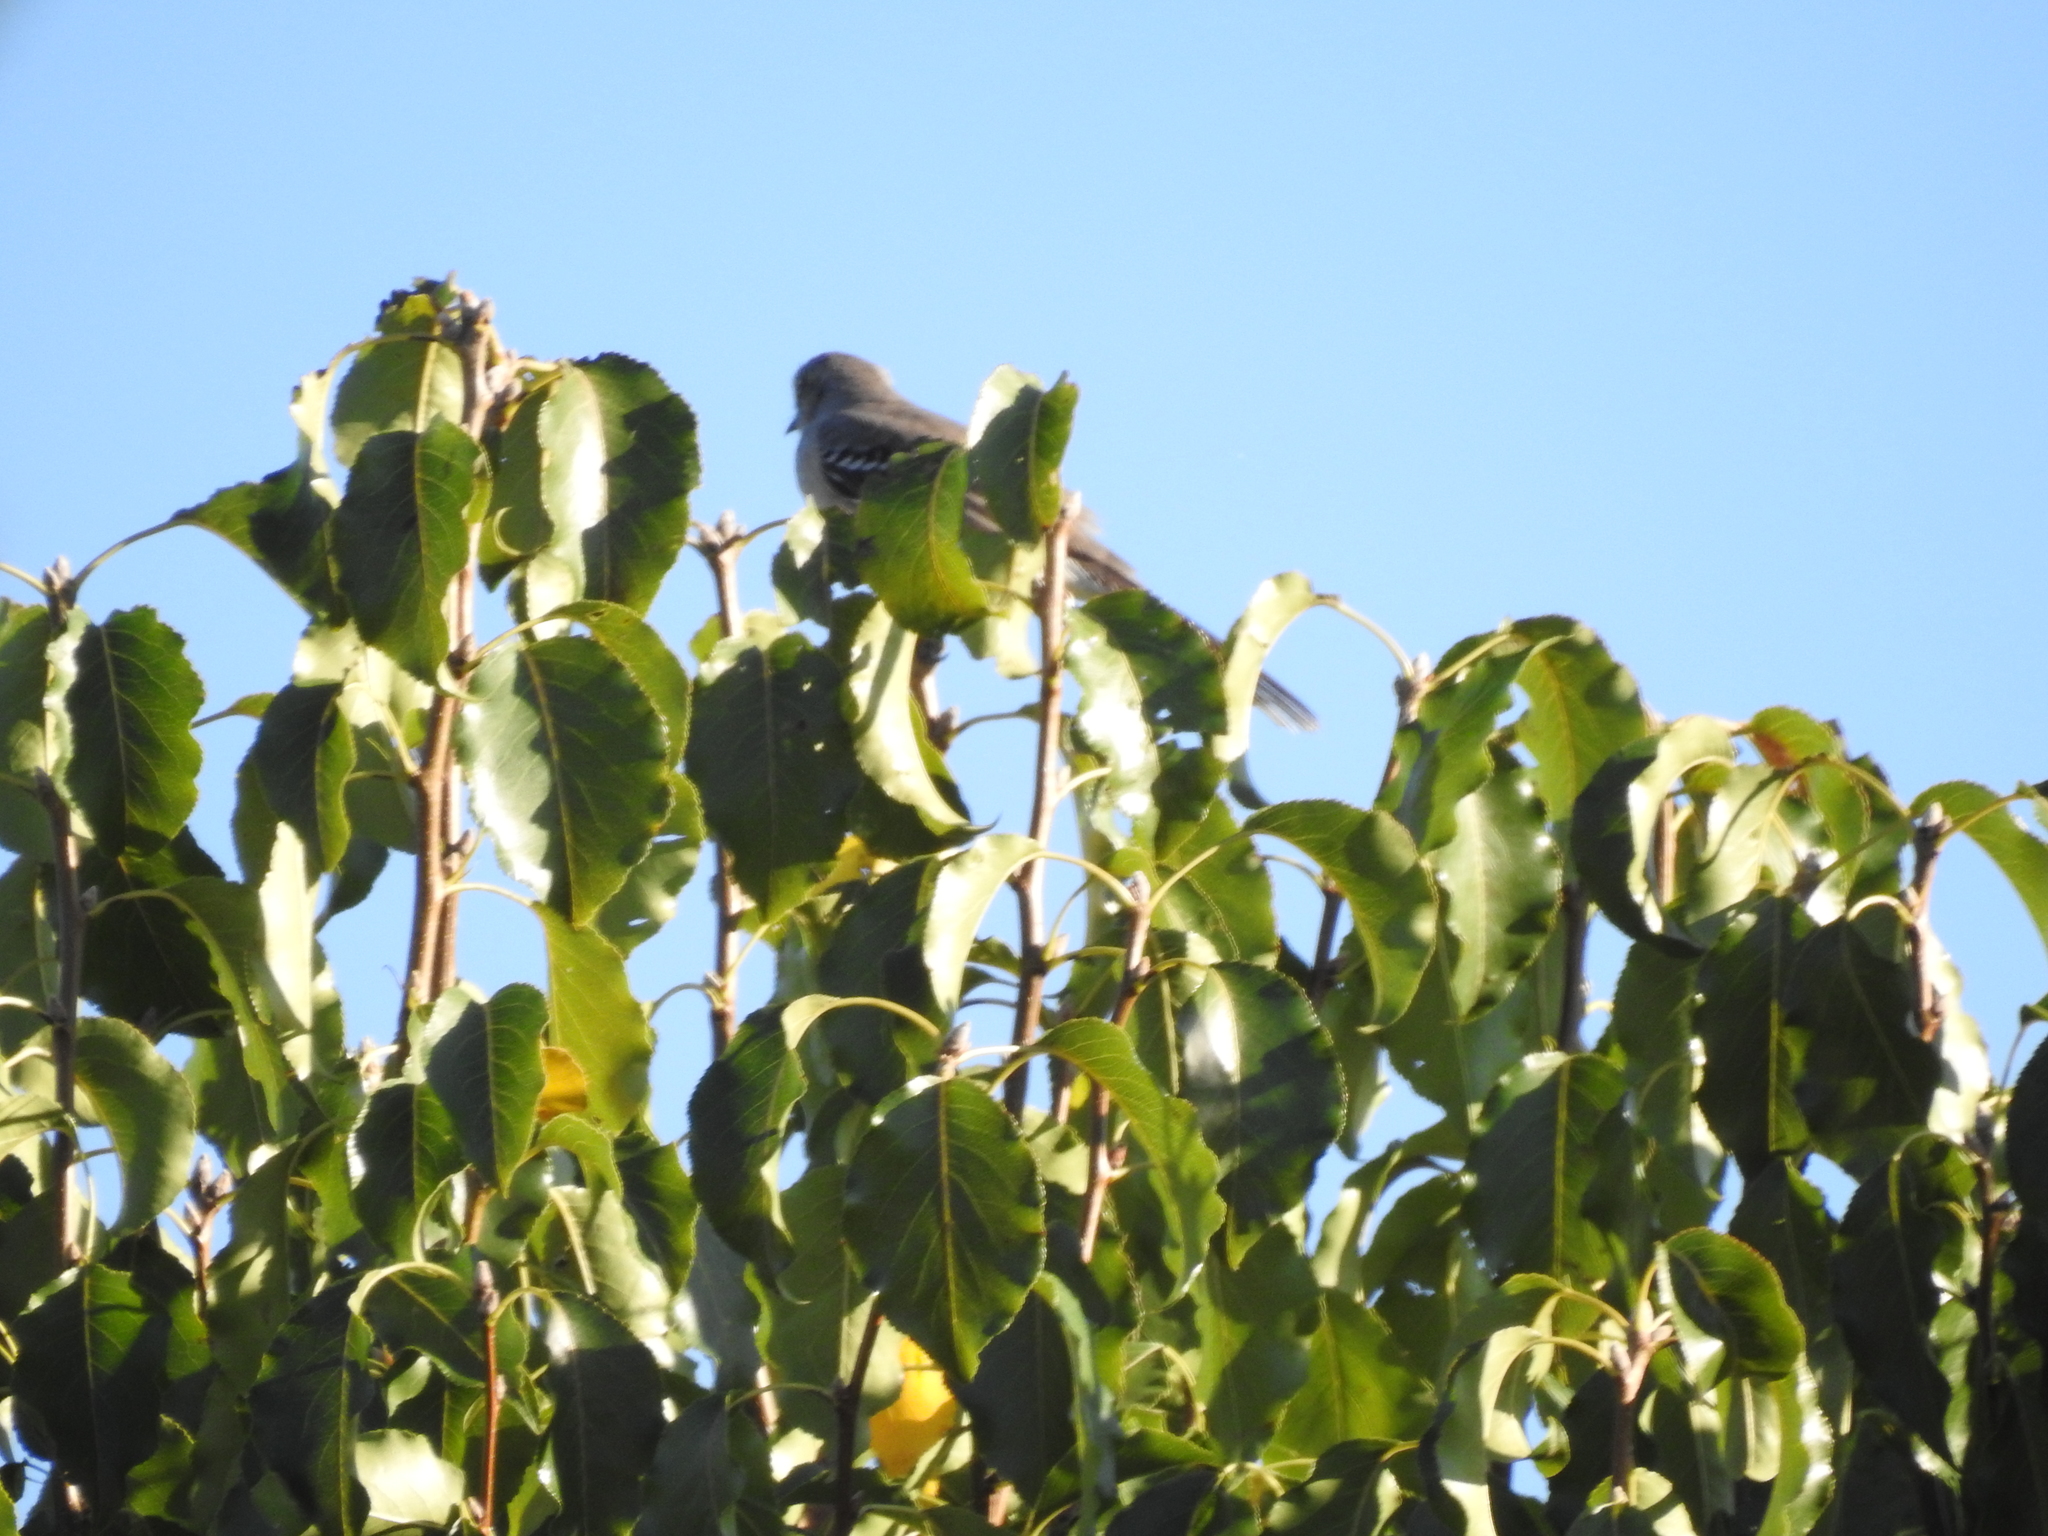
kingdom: Animalia
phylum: Chordata
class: Aves
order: Passeriformes
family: Mimidae
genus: Mimus
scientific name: Mimus polyglottos
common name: Northern mockingbird
